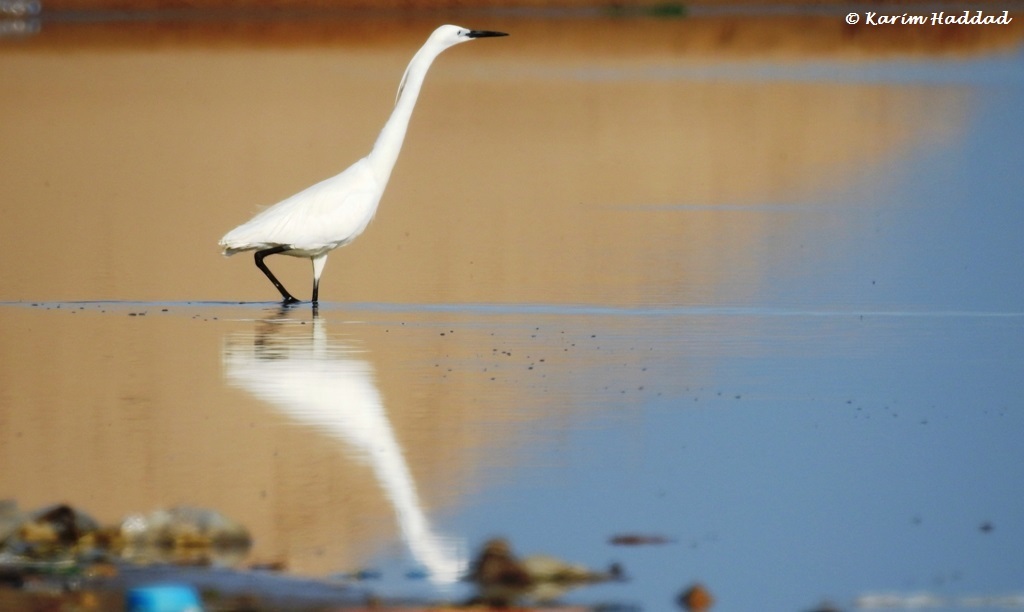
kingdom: Animalia
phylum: Chordata
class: Aves
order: Pelecaniformes
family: Ardeidae
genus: Egretta
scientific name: Egretta garzetta
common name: Little egret
